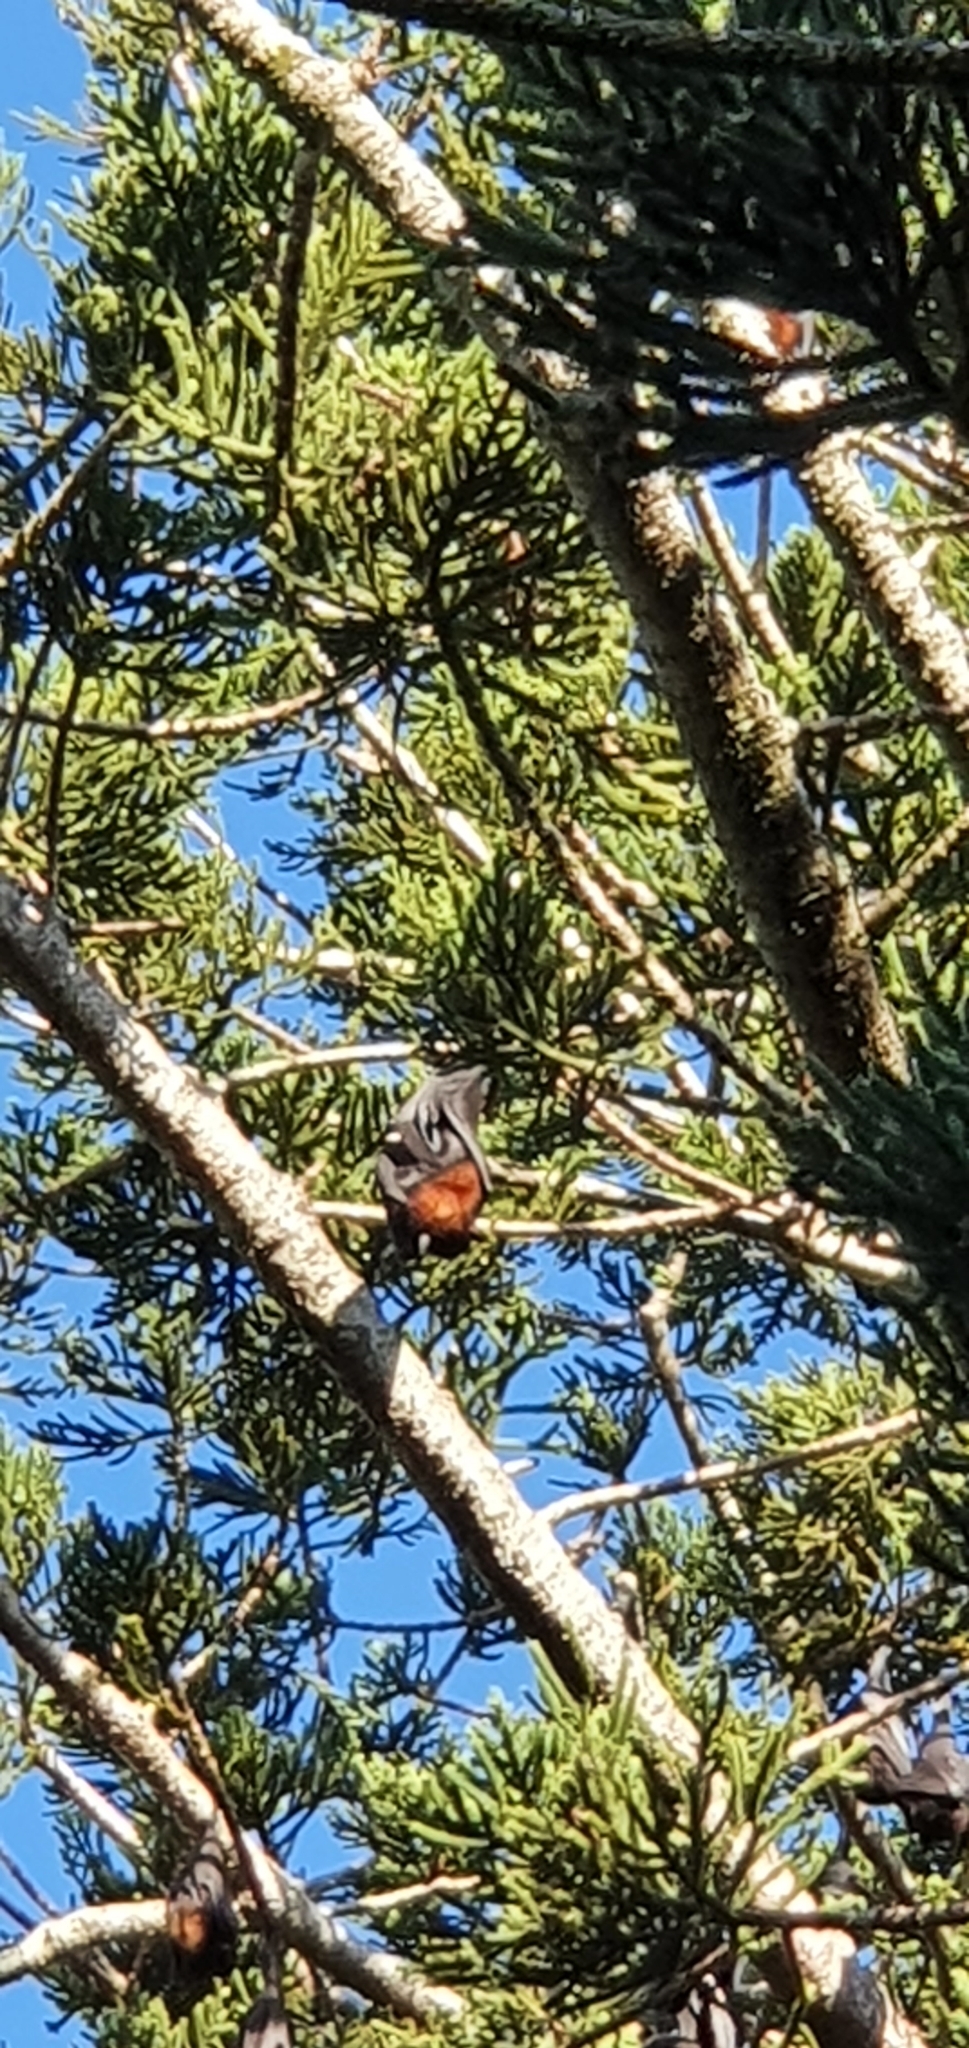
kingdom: Animalia
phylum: Chordata
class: Mammalia
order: Chiroptera
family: Pteropodidae
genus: Pteropus
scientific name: Pteropus alecto
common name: Black flying fox
